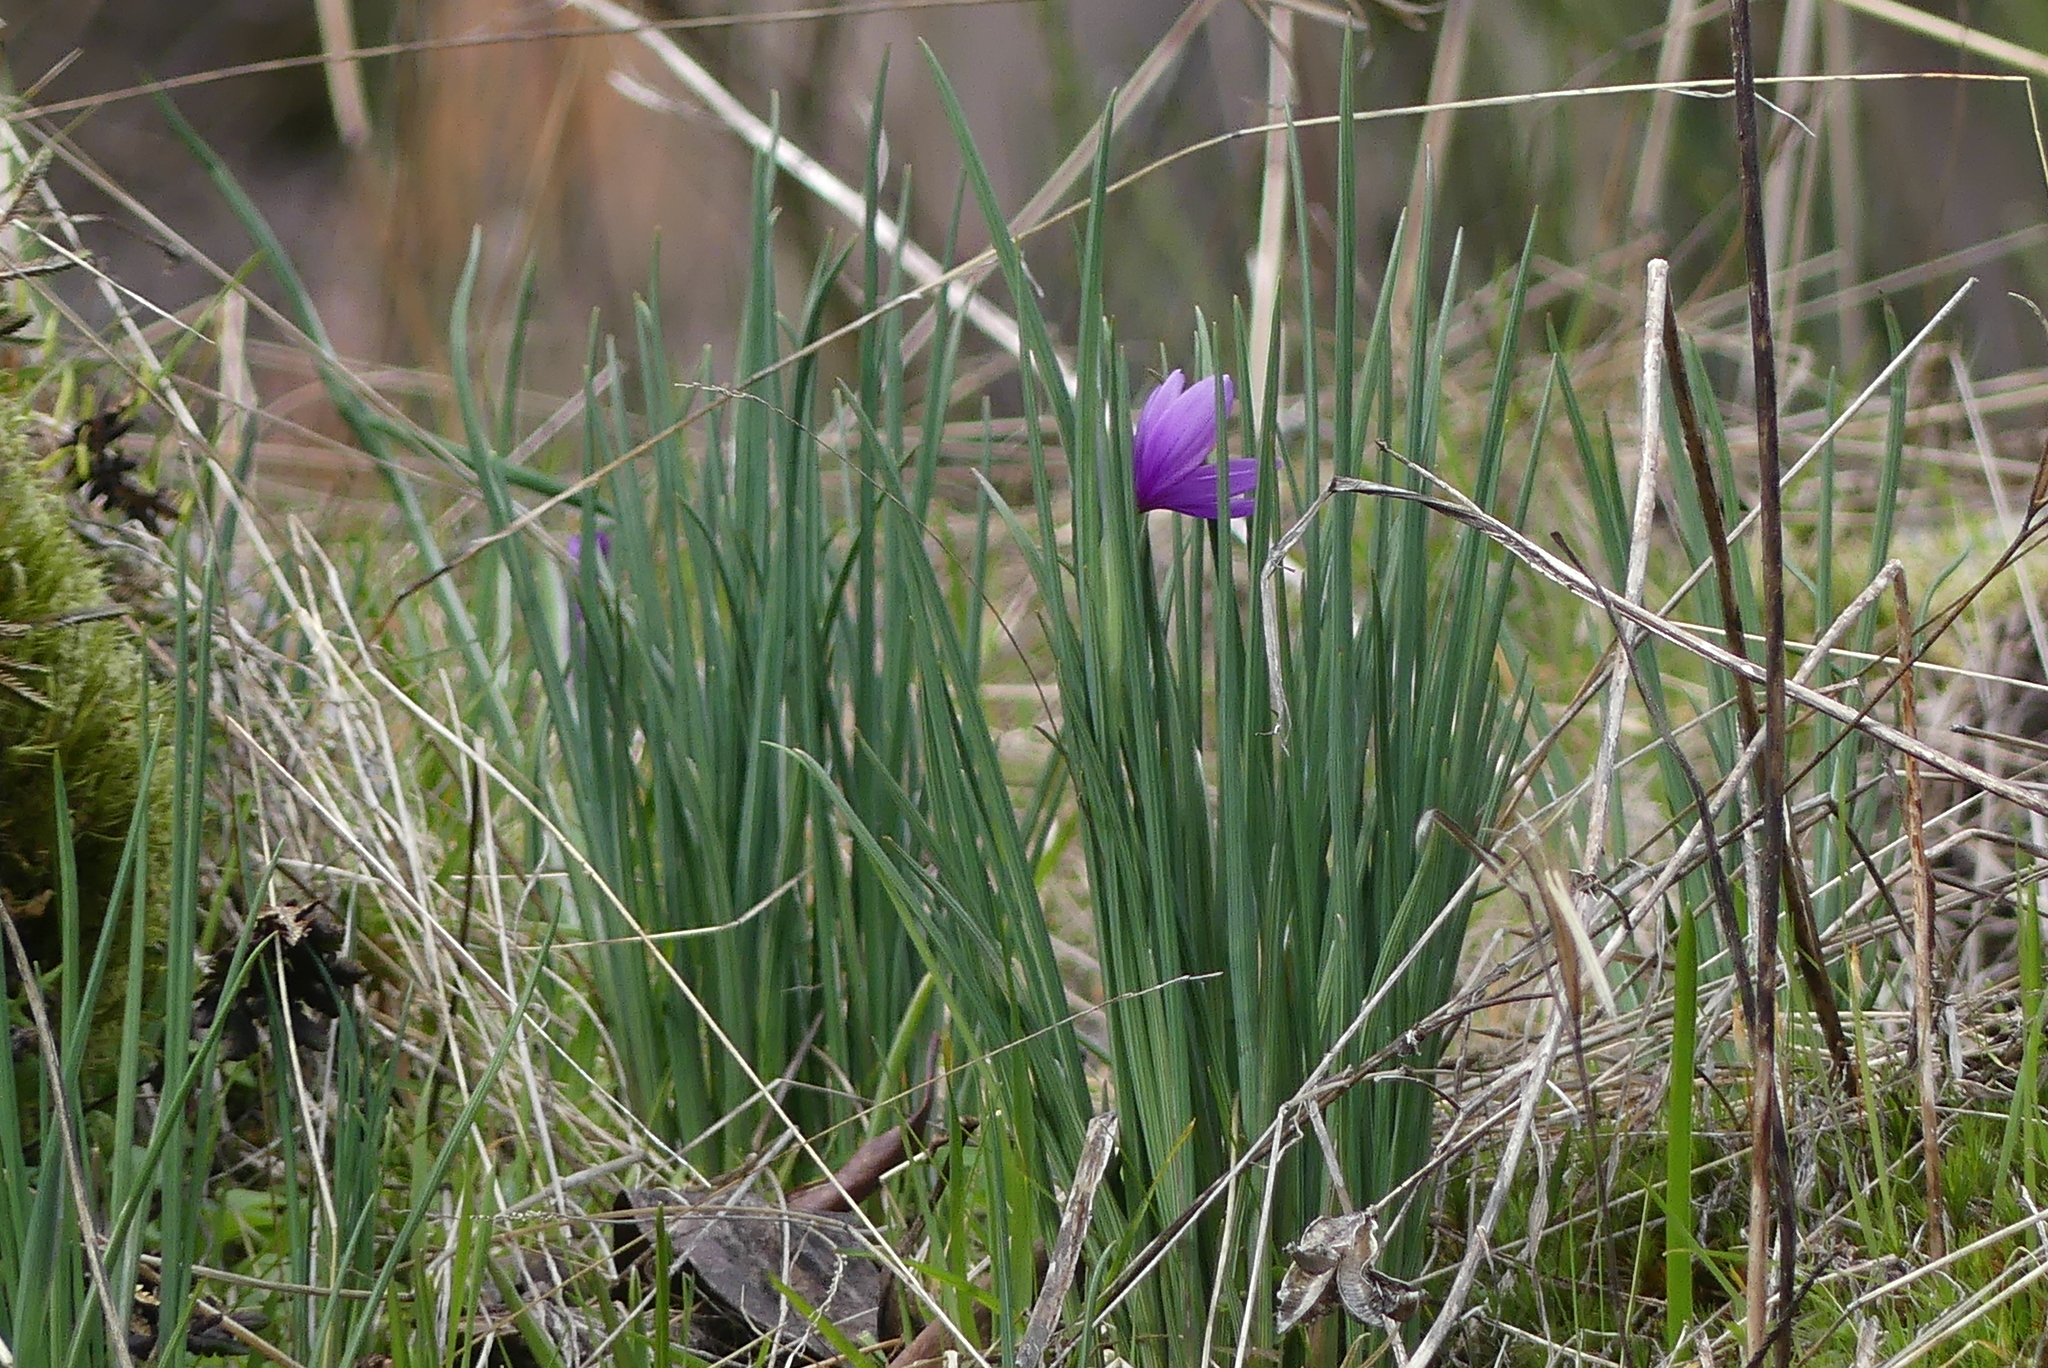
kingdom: Plantae
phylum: Tracheophyta
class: Liliopsida
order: Asparagales
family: Iridaceae
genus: Olsynium
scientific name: Olsynium douglasii
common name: Douglas' grasswidow
